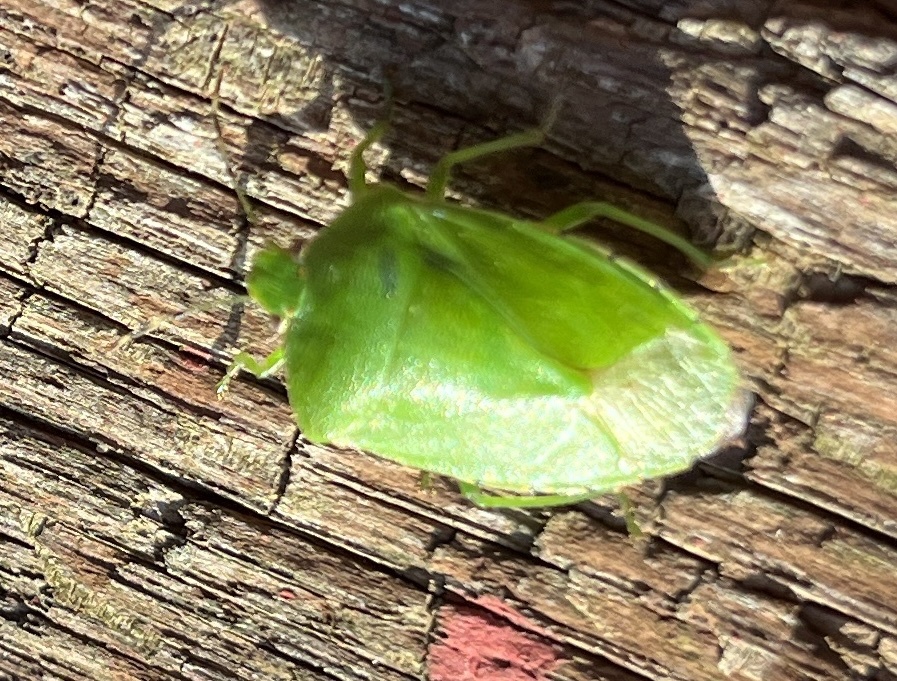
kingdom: Animalia
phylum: Arthropoda
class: Insecta
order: Hemiptera
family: Pentatomidae
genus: Chinavia
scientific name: Chinavia hilaris
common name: Green stink bug
